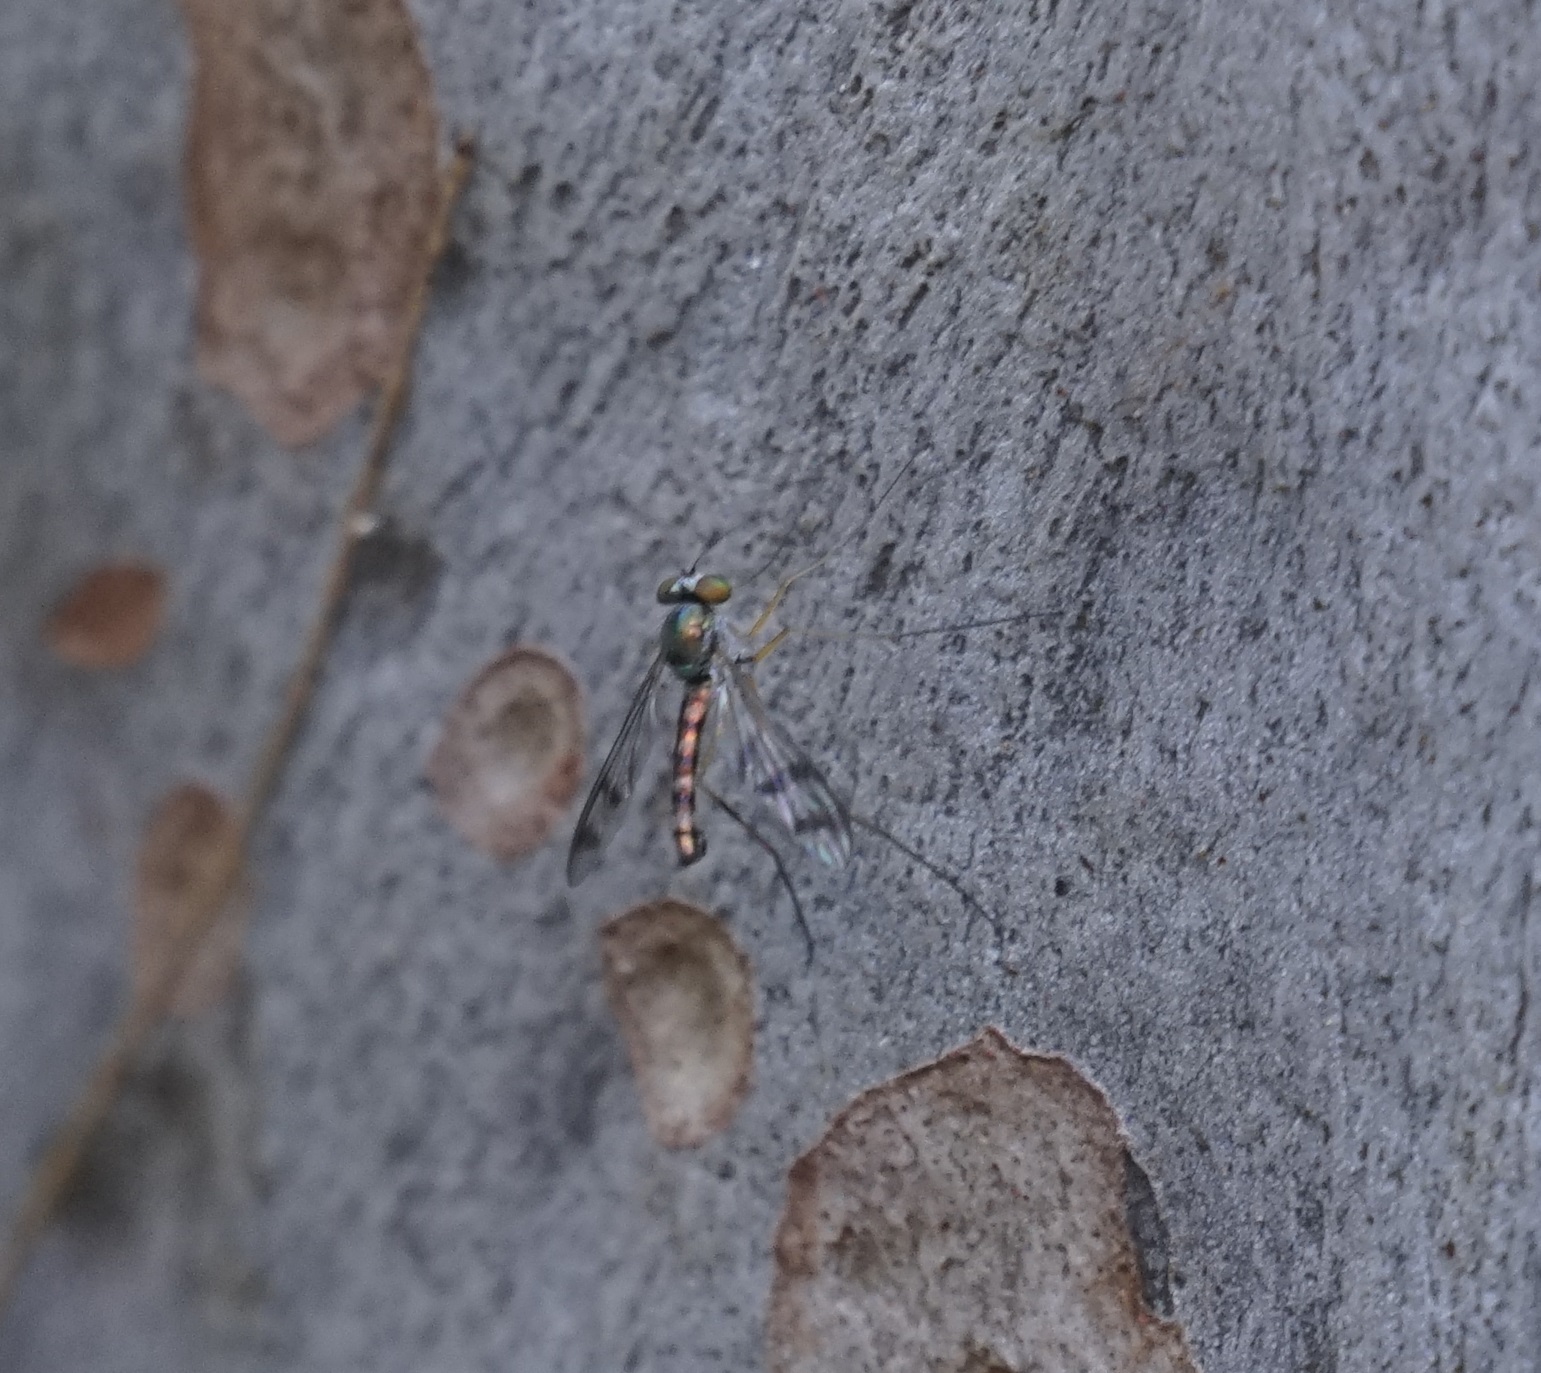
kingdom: Animalia
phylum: Arthropoda
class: Insecta
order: Diptera
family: Dolichopodidae
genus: Heteropsilopus
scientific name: Heteropsilopus squamifer
